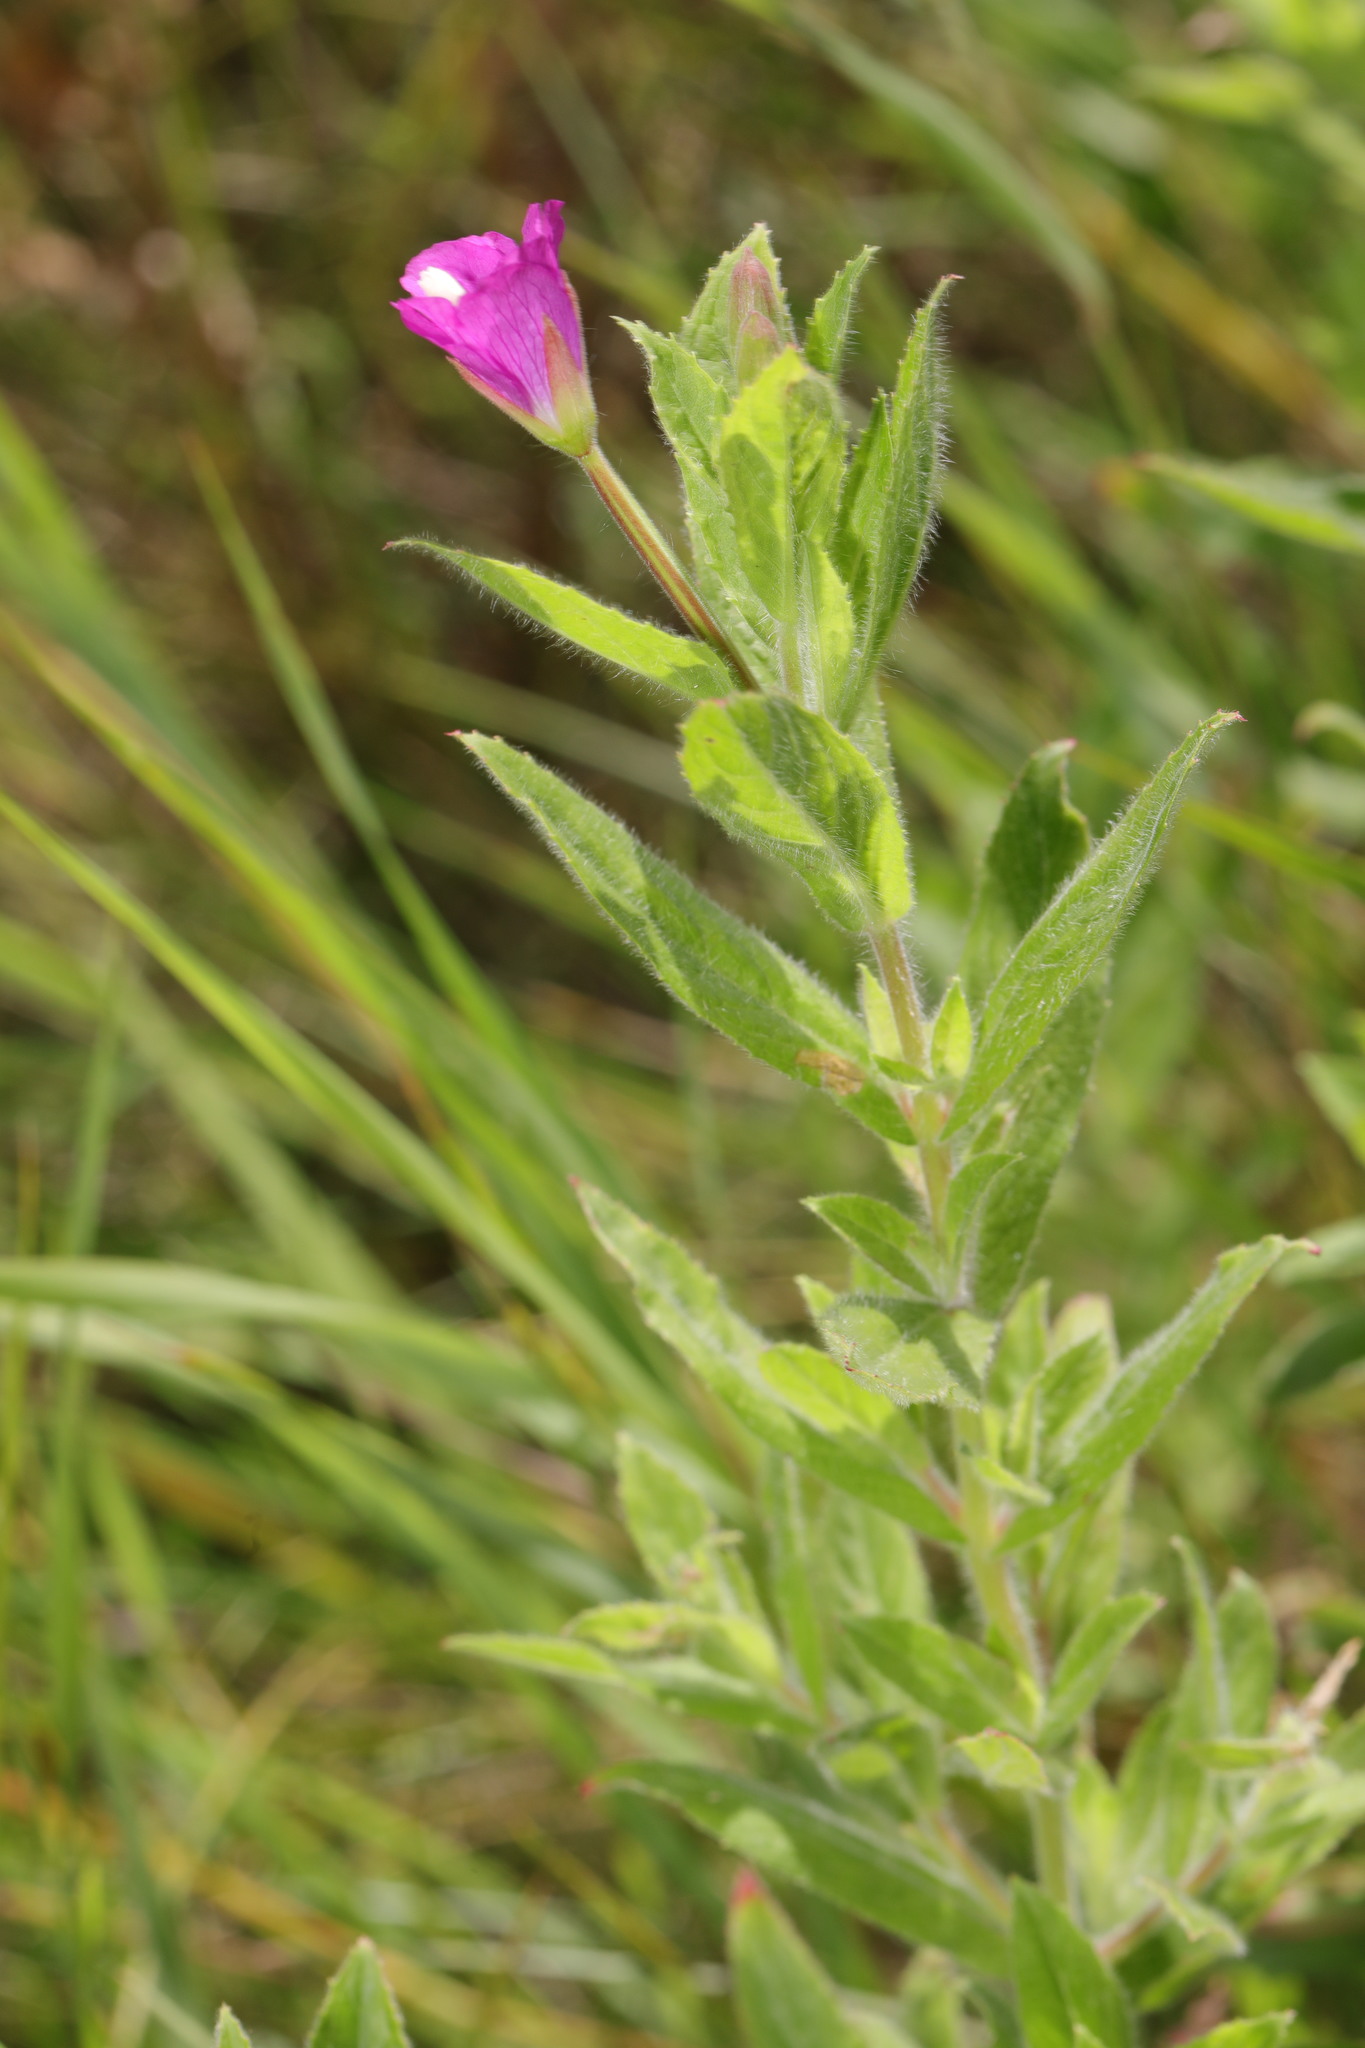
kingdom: Plantae
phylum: Tracheophyta
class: Magnoliopsida
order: Myrtales
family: Onagraceae
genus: Epilobium
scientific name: Epilobium hirsutum
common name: Great willowherb
